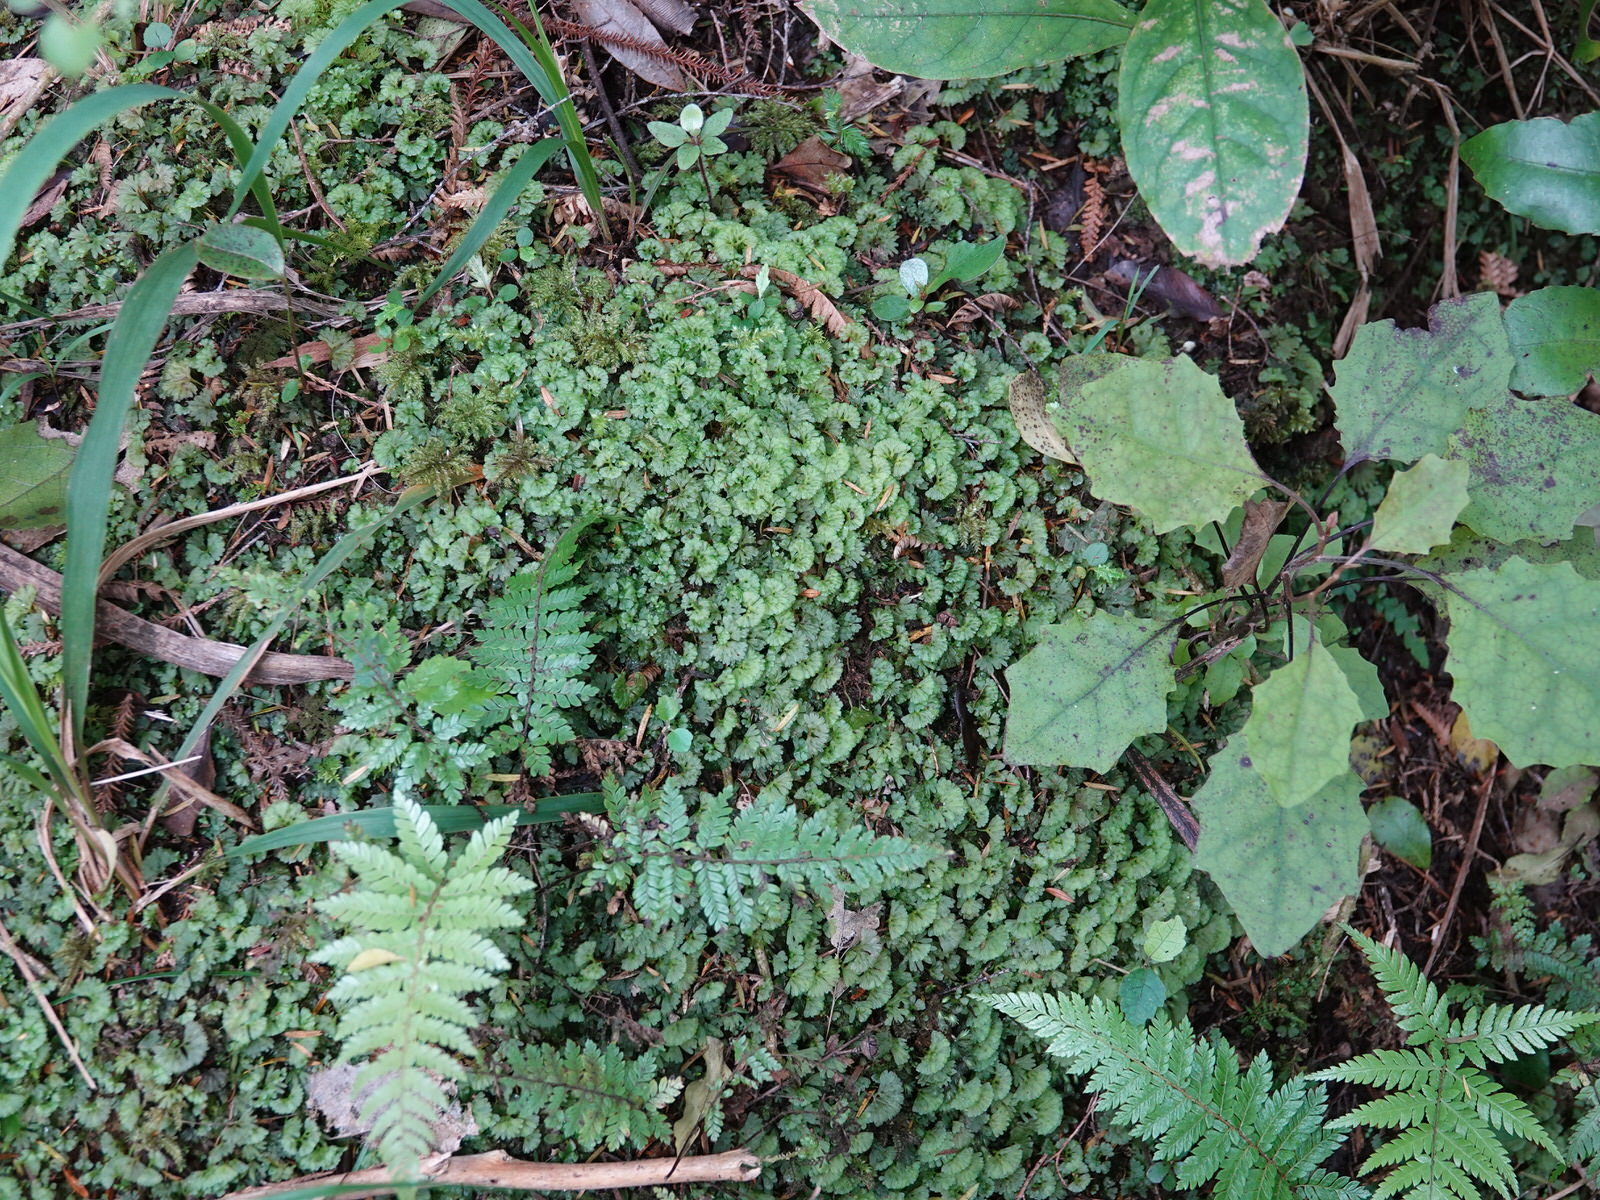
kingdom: Plantae
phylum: Marchantiophyta
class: Jungermanniopsida
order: Pallaviciniales
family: Hymenophytaceae
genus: Hymenophyton
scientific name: Hymenophyton flabellatum
